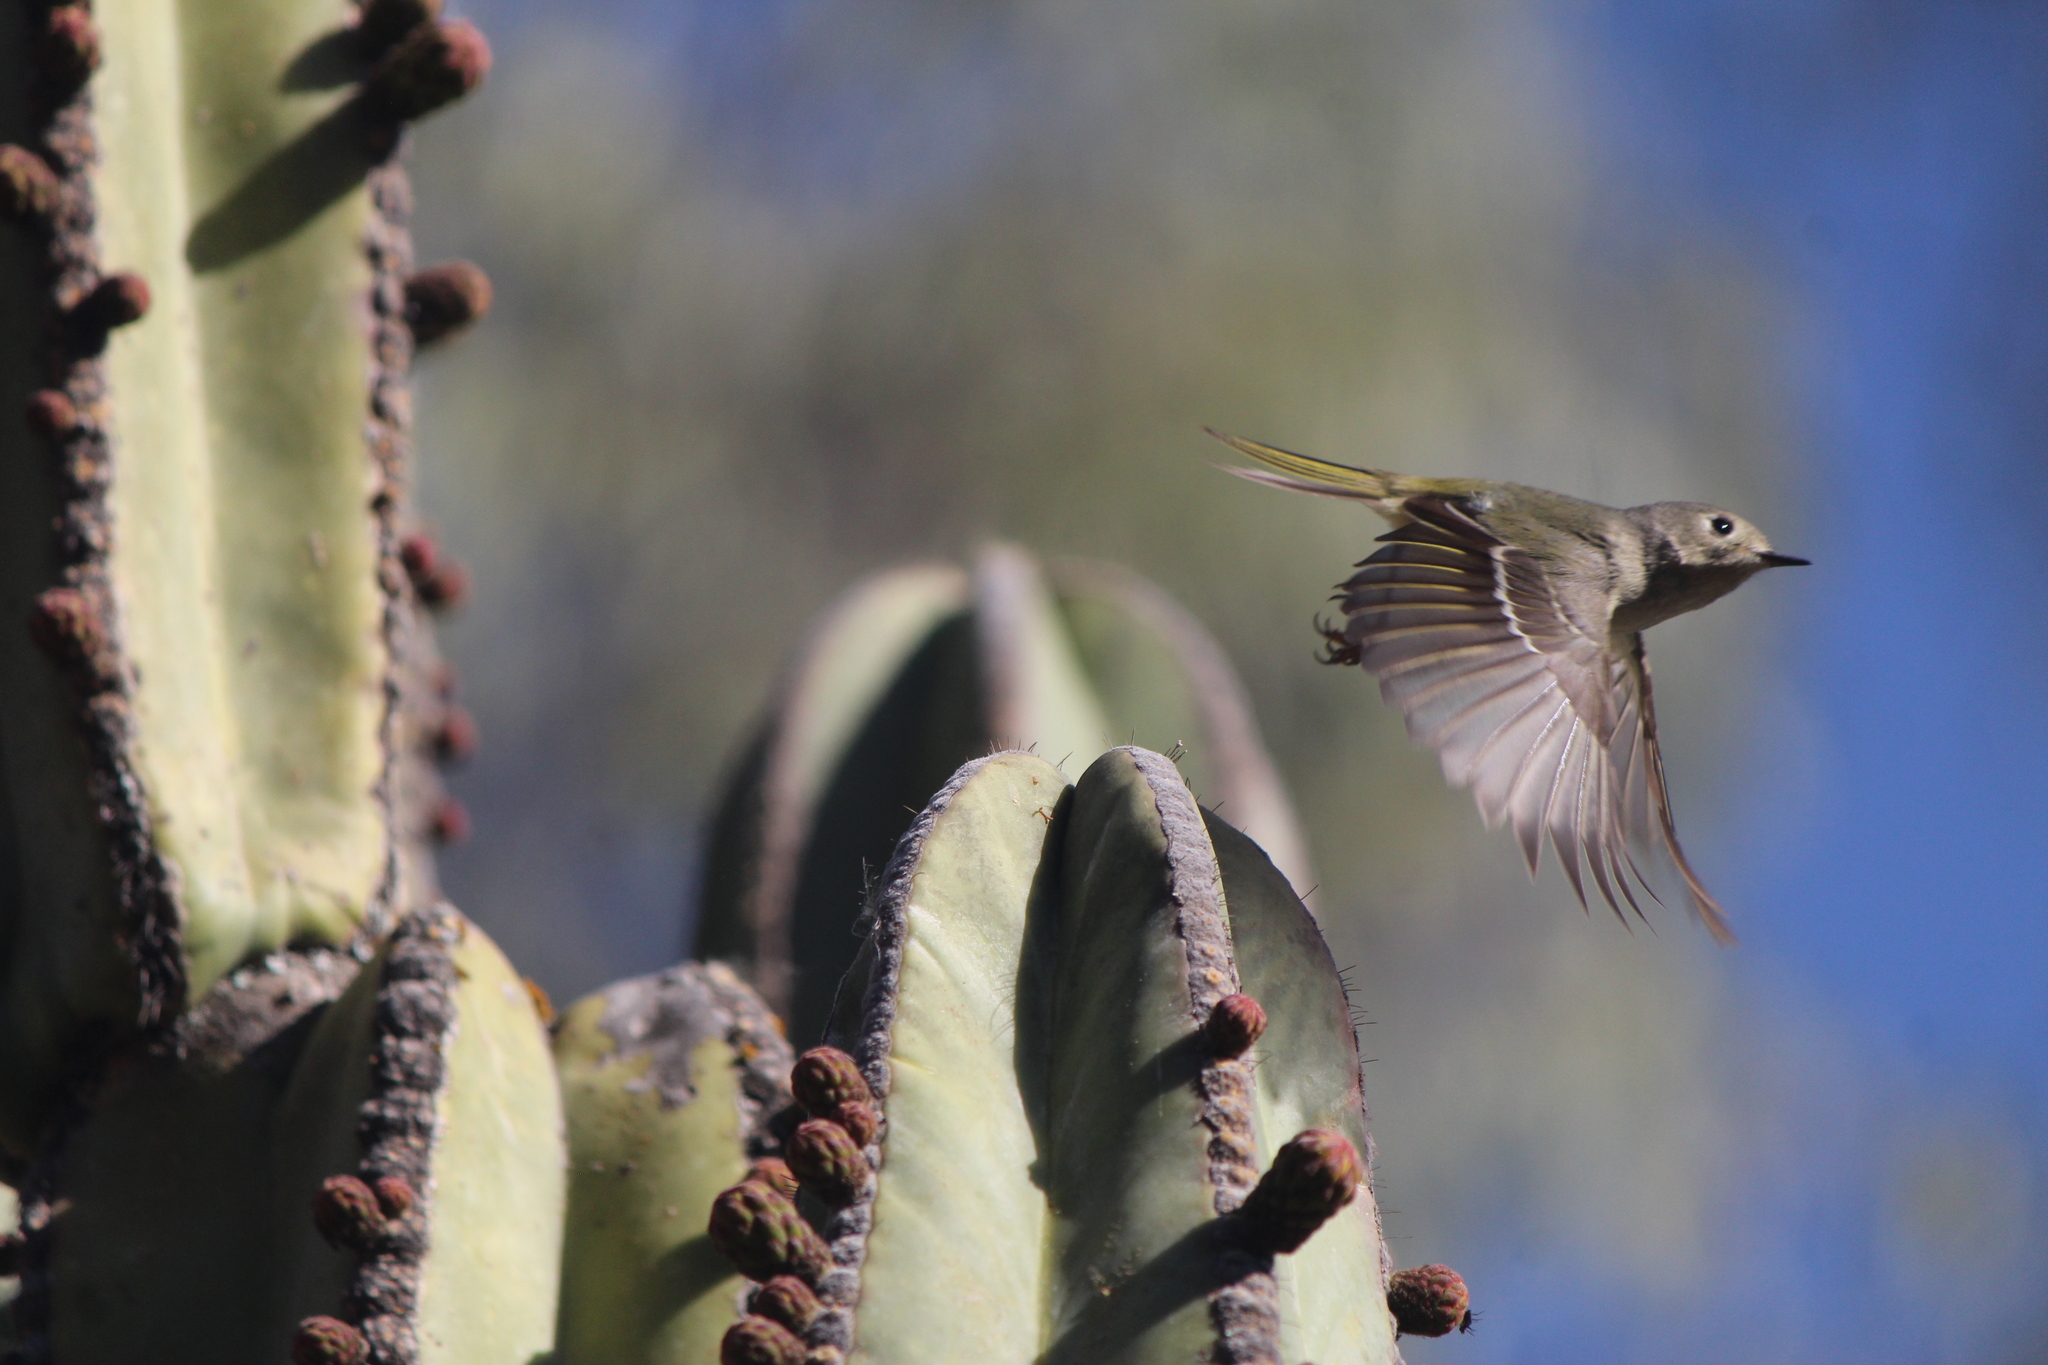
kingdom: Animalia
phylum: Chordata
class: Aves
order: Passeriformes
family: Regulidae
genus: Regulus
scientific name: Regulus calendula
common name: Ruby-crowned kinglet
